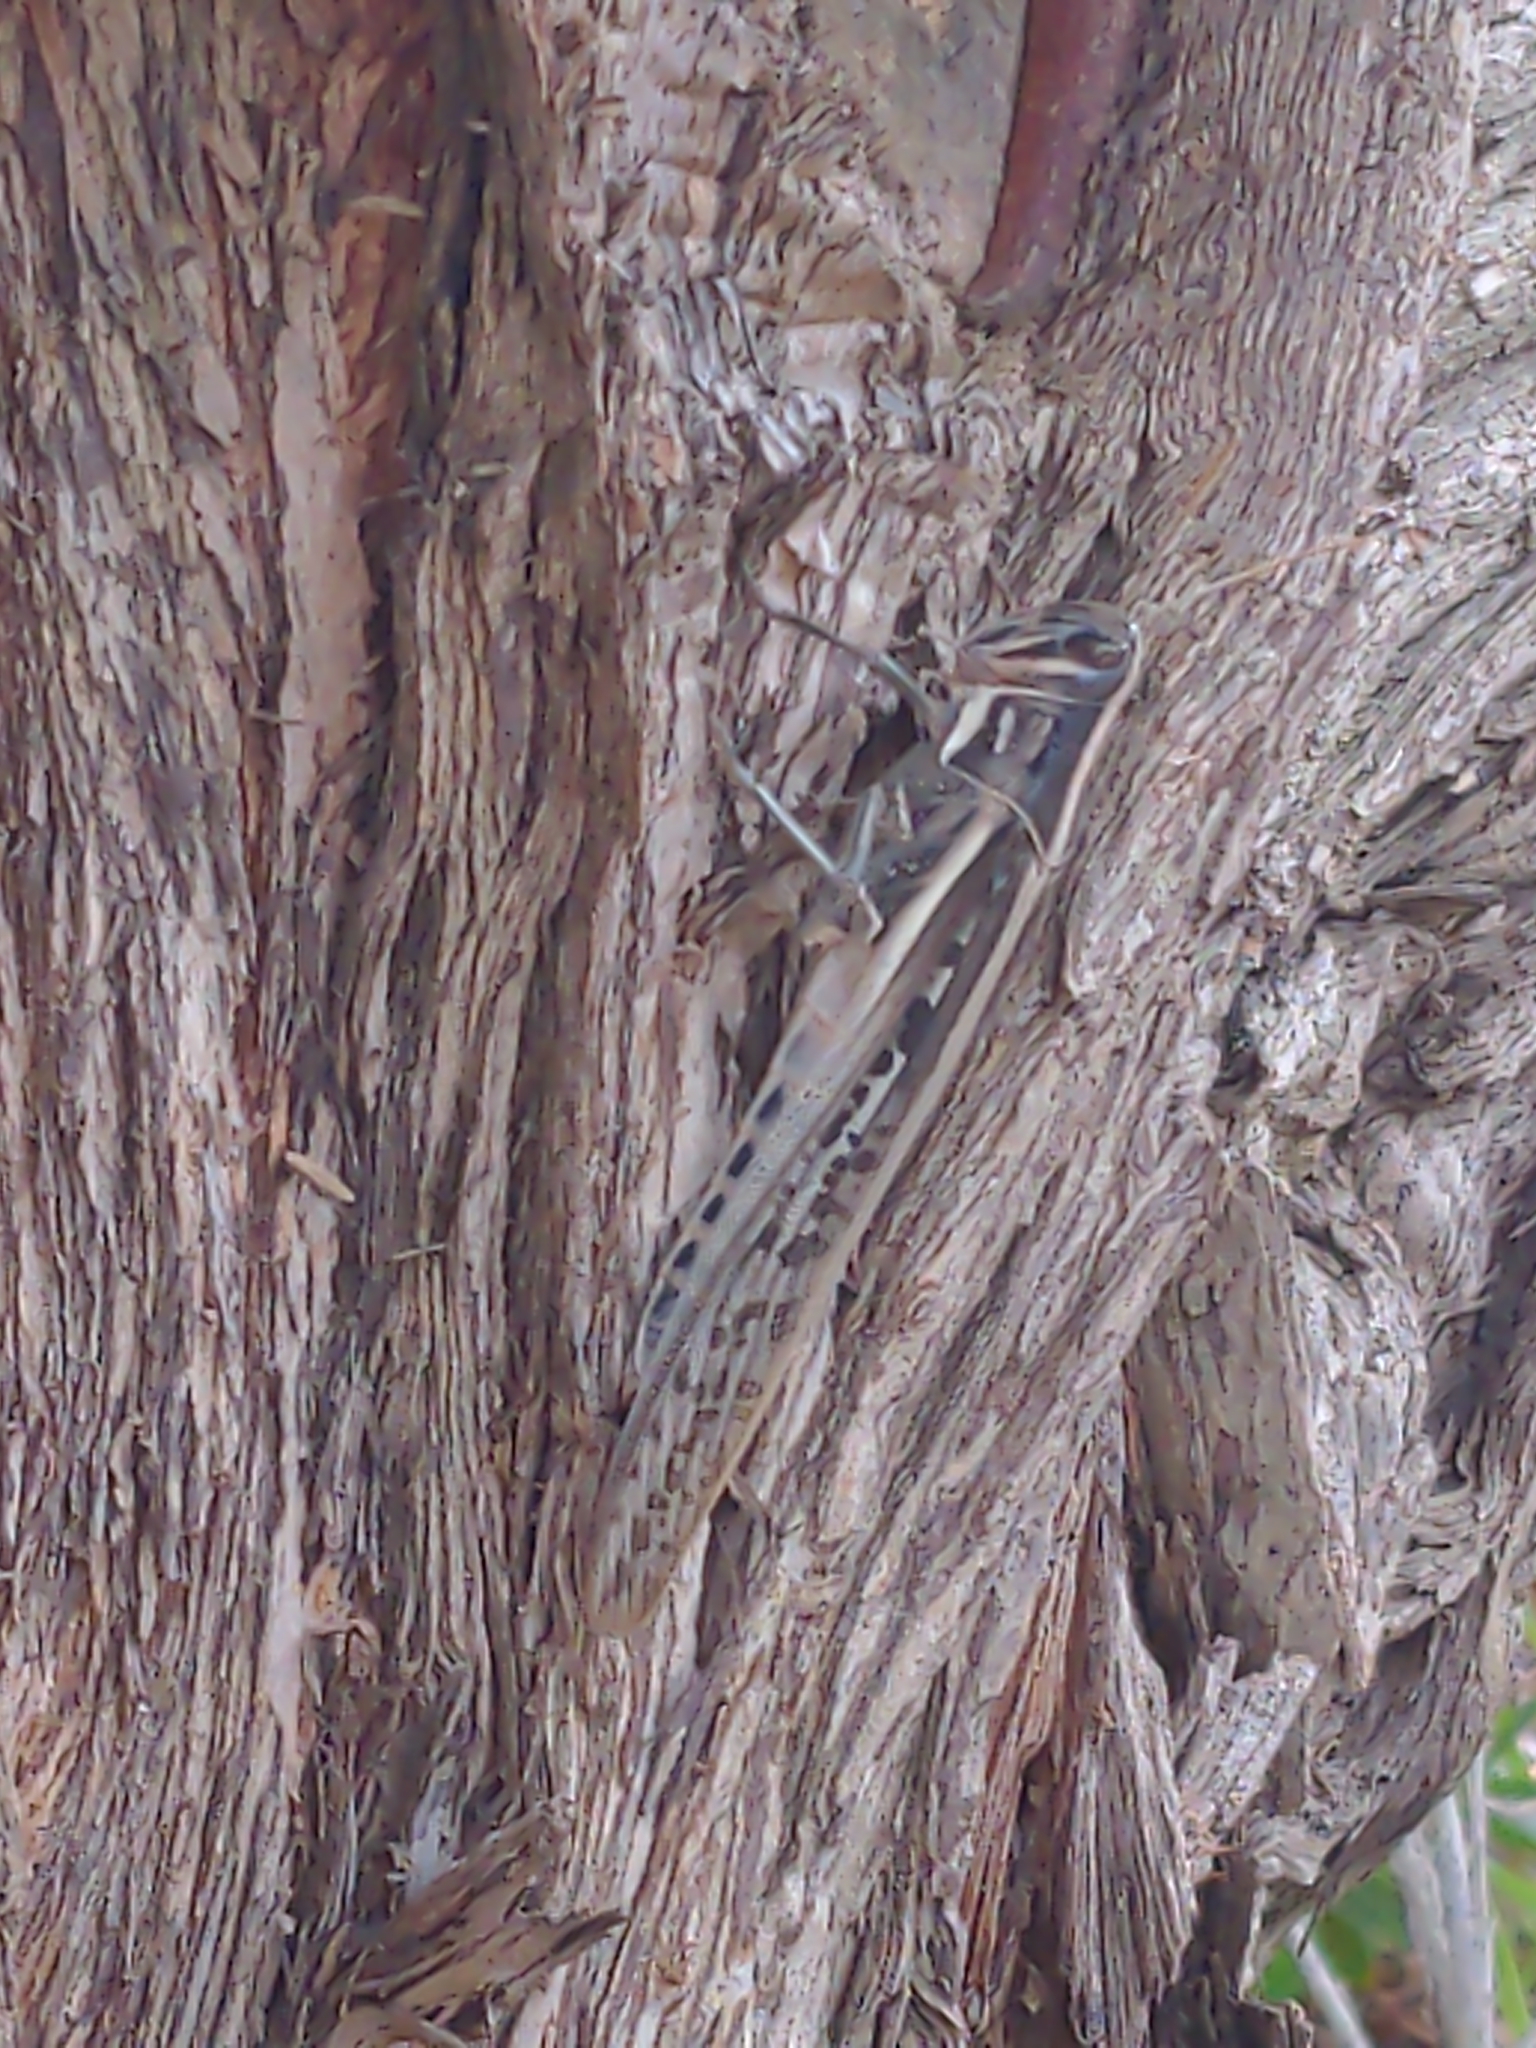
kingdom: Animalia
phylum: Arthropoda
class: Insecta
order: Orthoptera
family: Acrididae
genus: Austracris
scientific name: Austracris guttulosa
